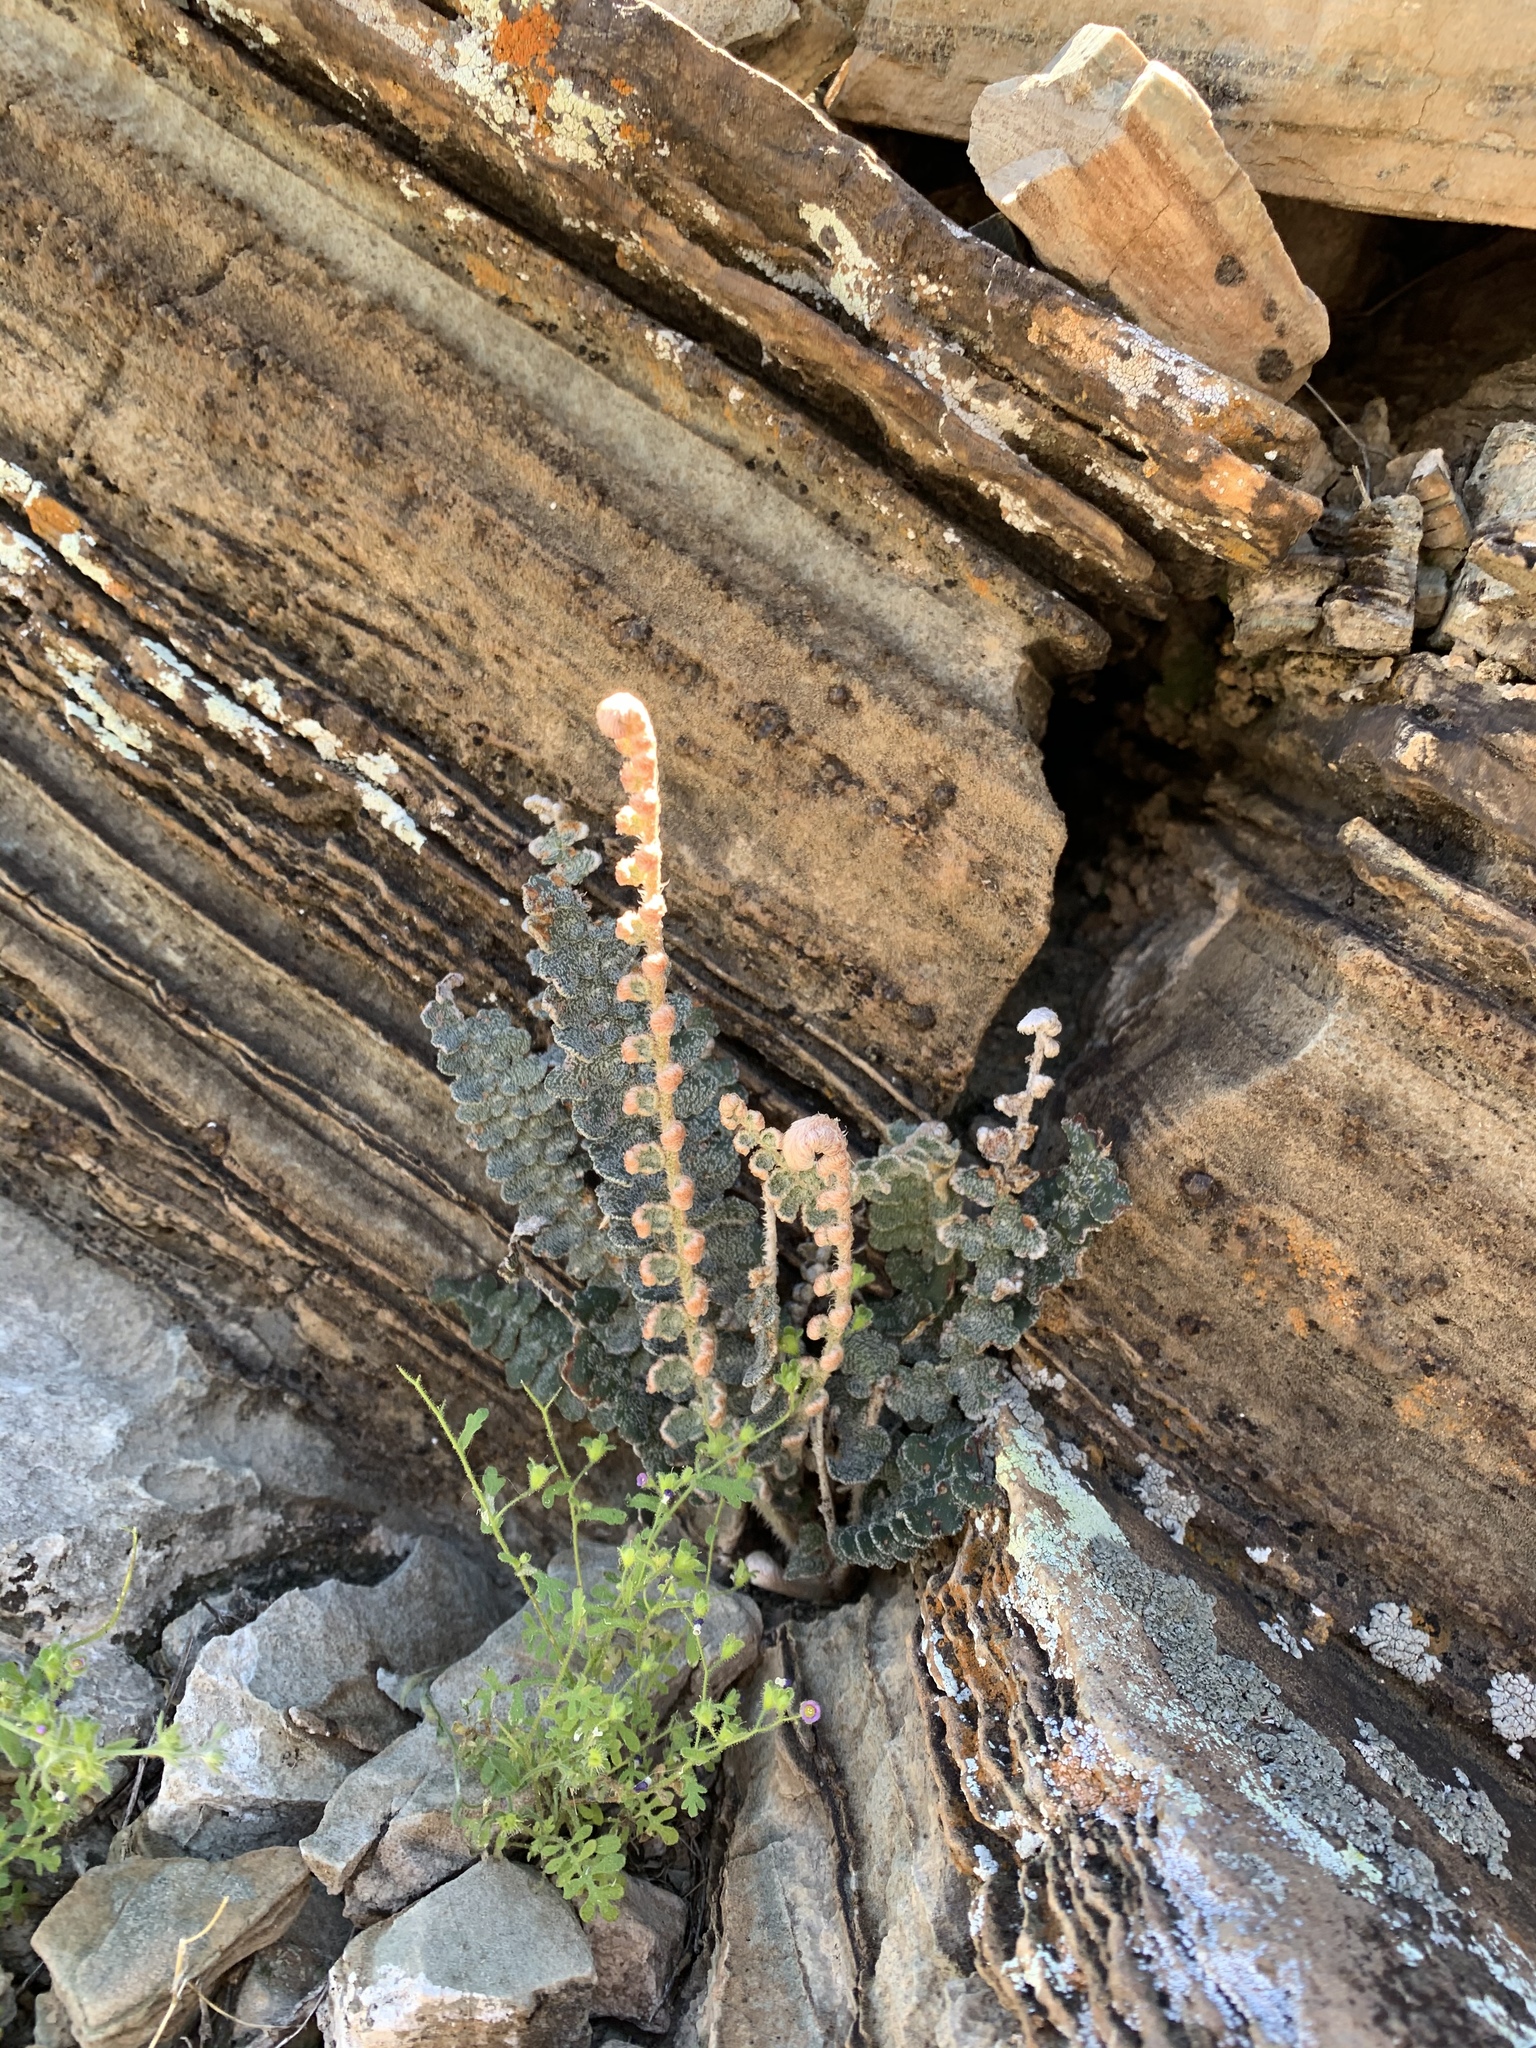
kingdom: Plantae
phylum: Tracheophyta
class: Polypodiopsida
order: Polypodiales
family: Pteridaceae
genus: Astrolepis
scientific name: Astrolepis integerrima
